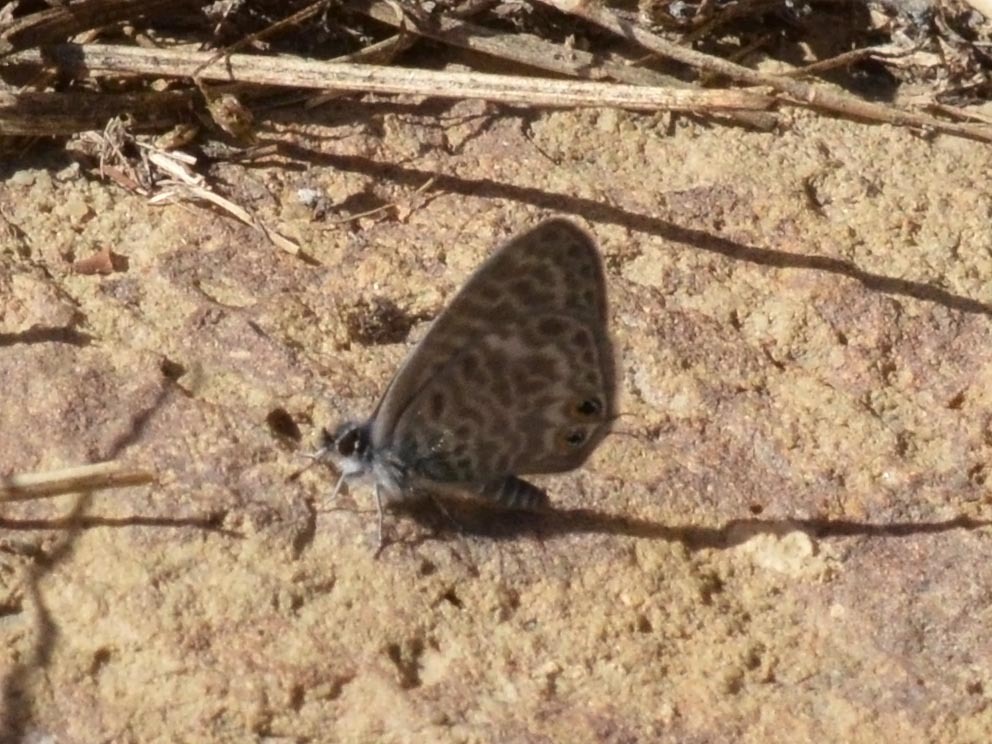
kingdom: Animalia
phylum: Arthropoda
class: Insecta
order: Lepidoptera
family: Lycaenidae
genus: Leptotes
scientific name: Leptotes pirithous
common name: Lang's short-tailed blue
